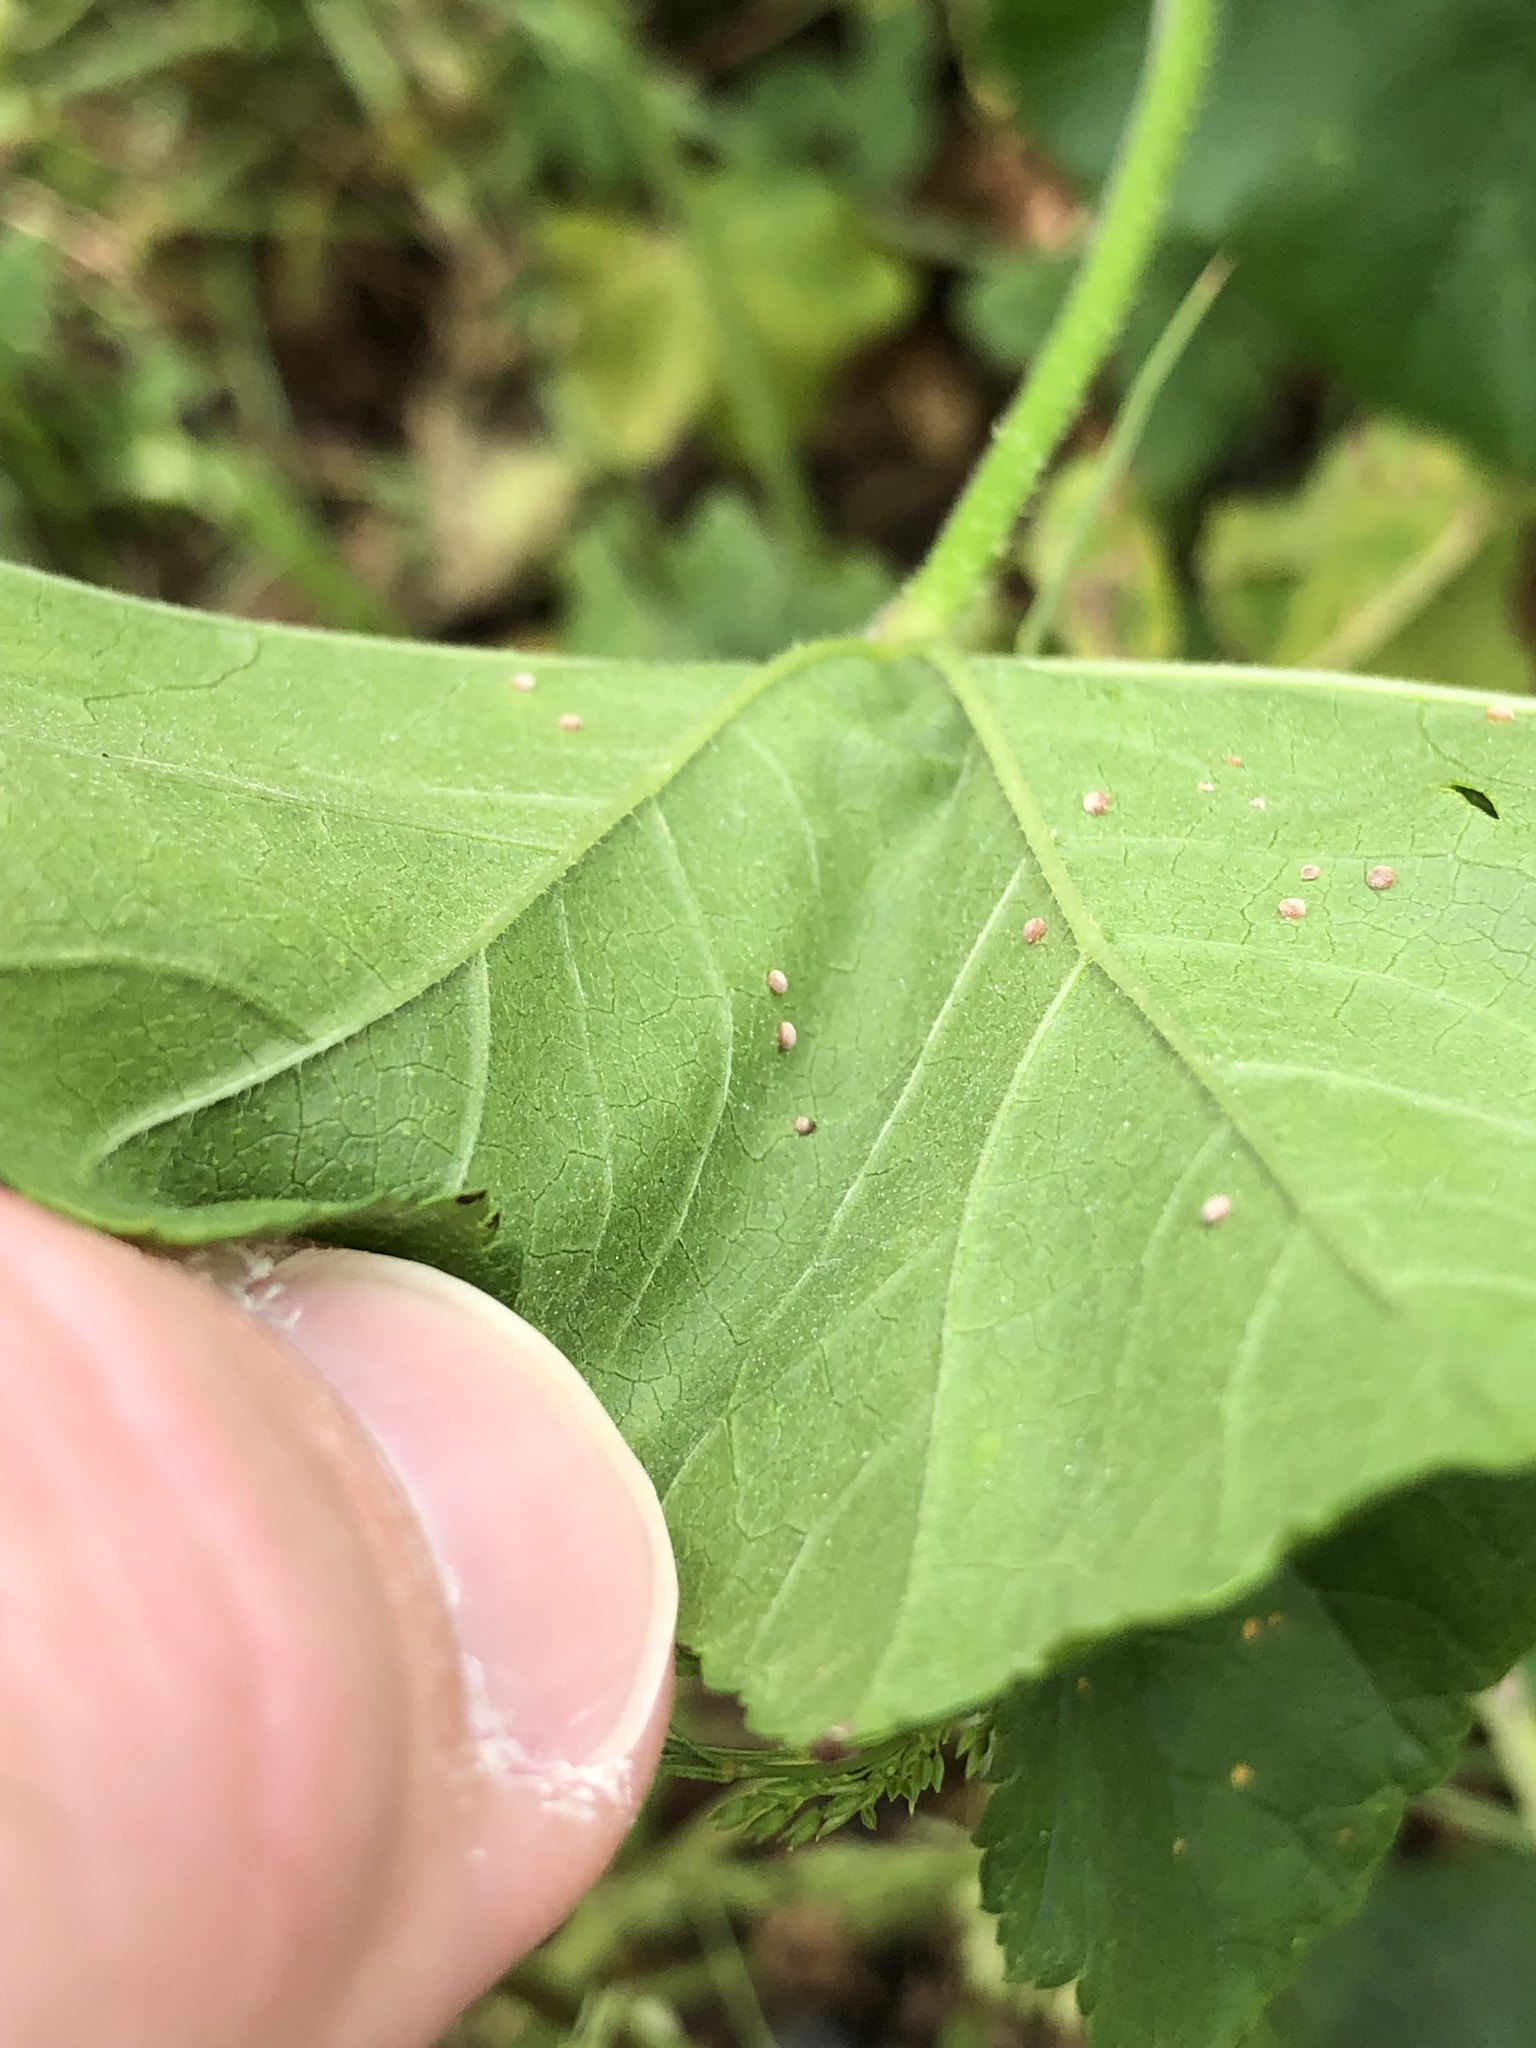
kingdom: Fungi
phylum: Basidiomycota
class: Pucciniomycetes
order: Pucciniales
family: Pucciniaceae
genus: Puccinia
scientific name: Puccinia malvacearum
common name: Hollyhock rust
